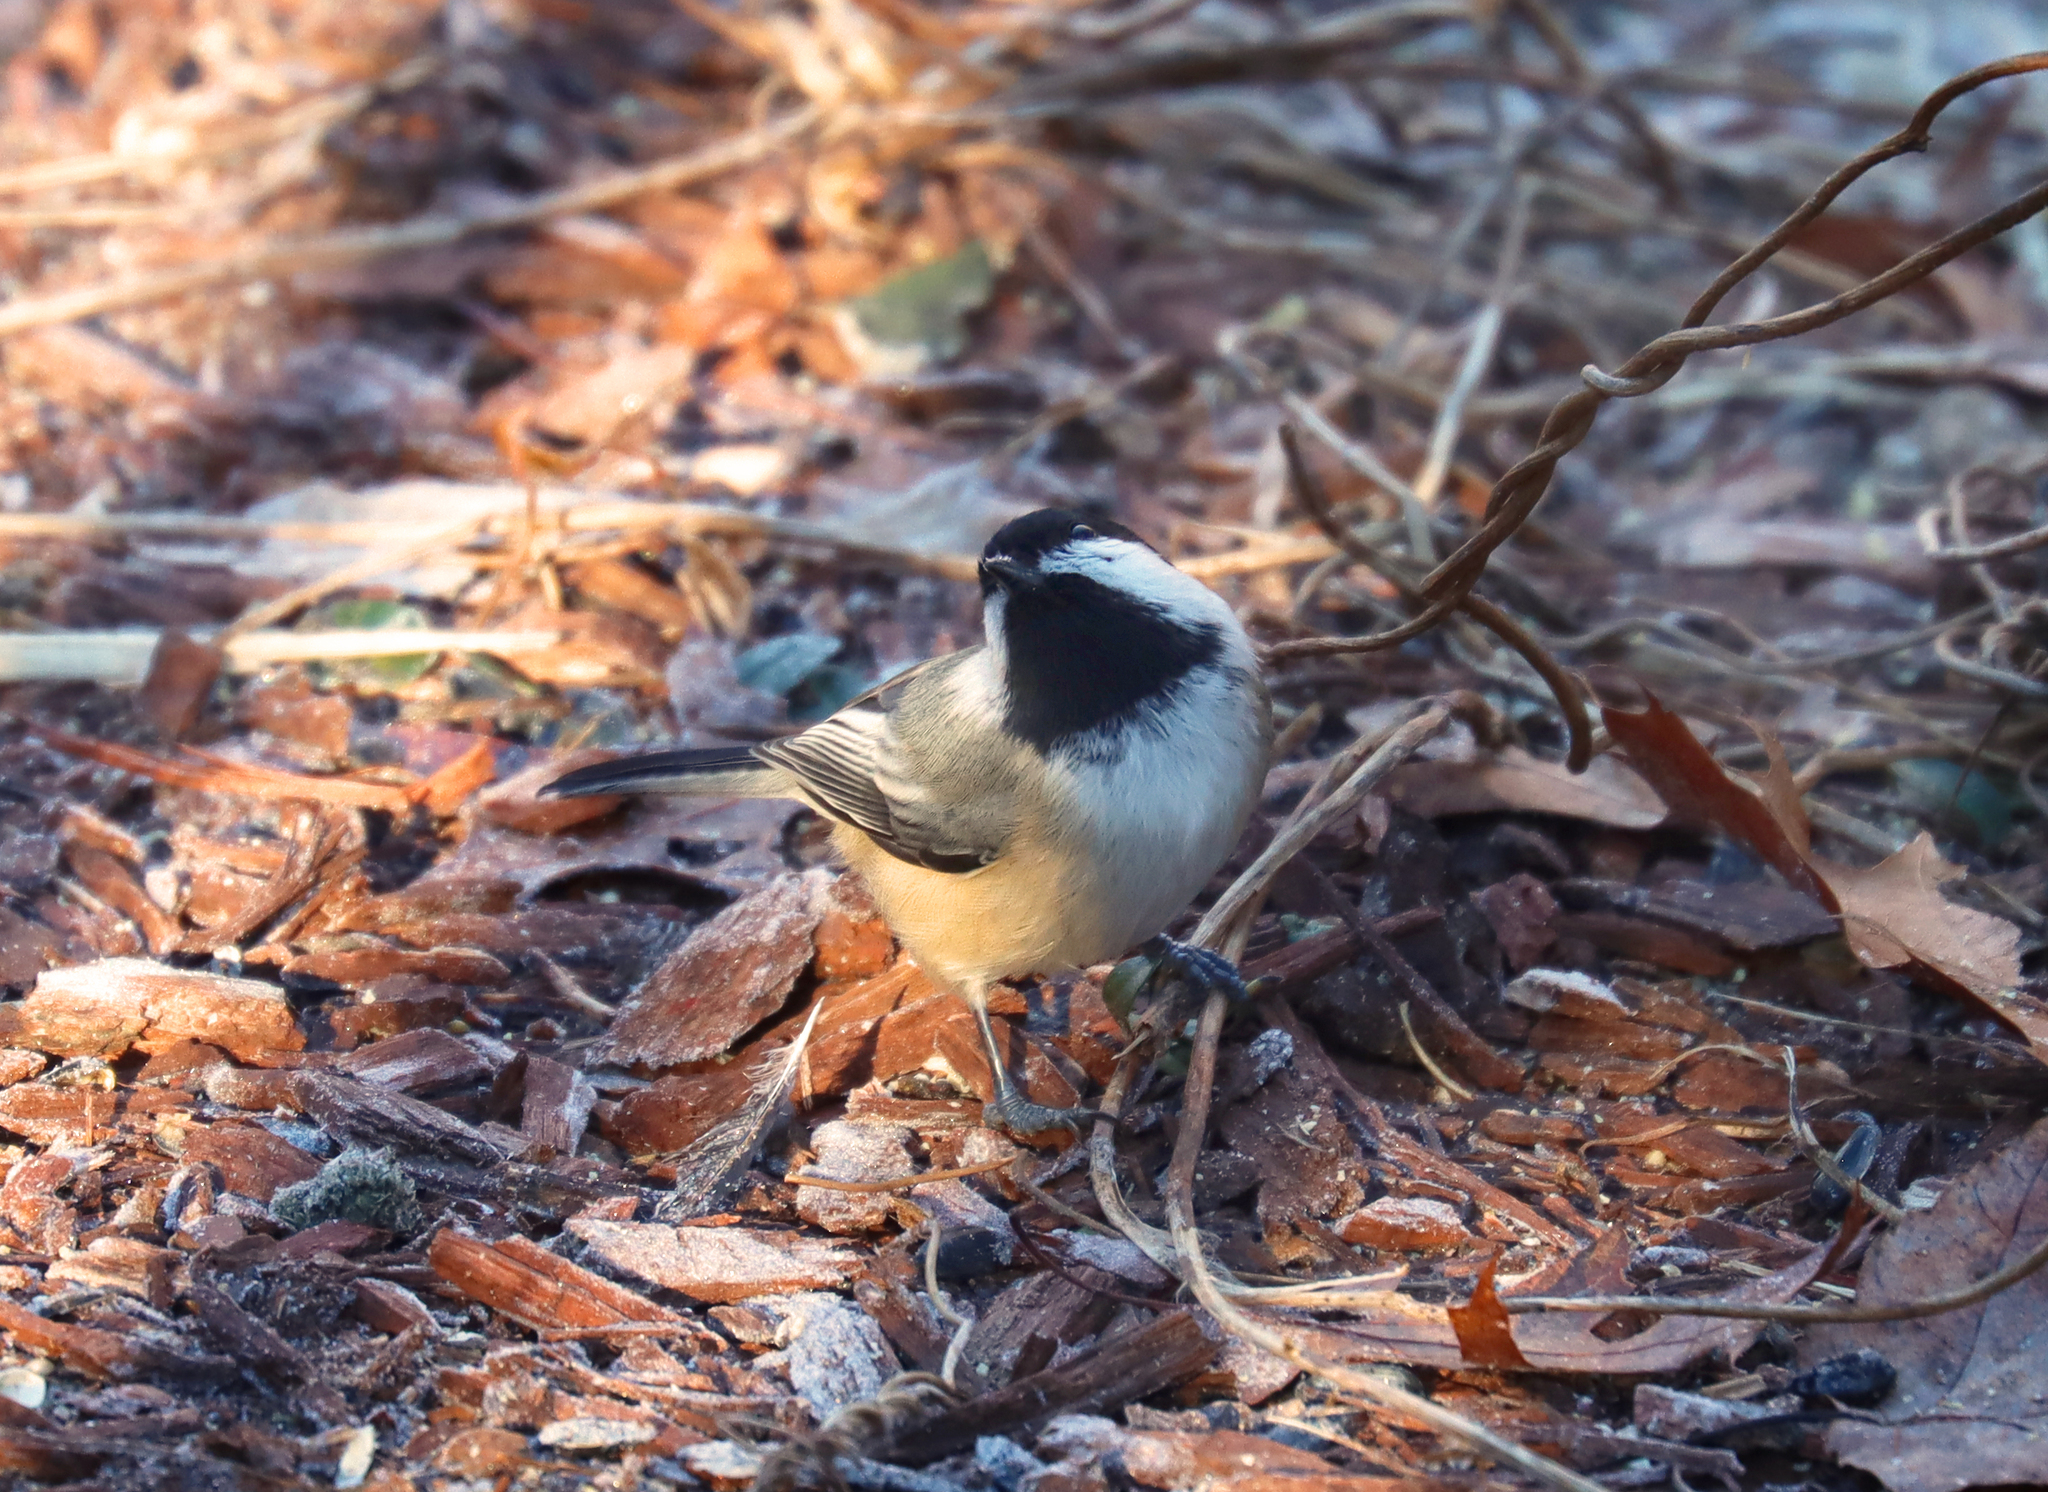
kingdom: Animalia
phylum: Chordata
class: Aves
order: Passeriformes
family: Paridae
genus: Poecile
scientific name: Poecile atricapillus
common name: Black-capped chickadee
